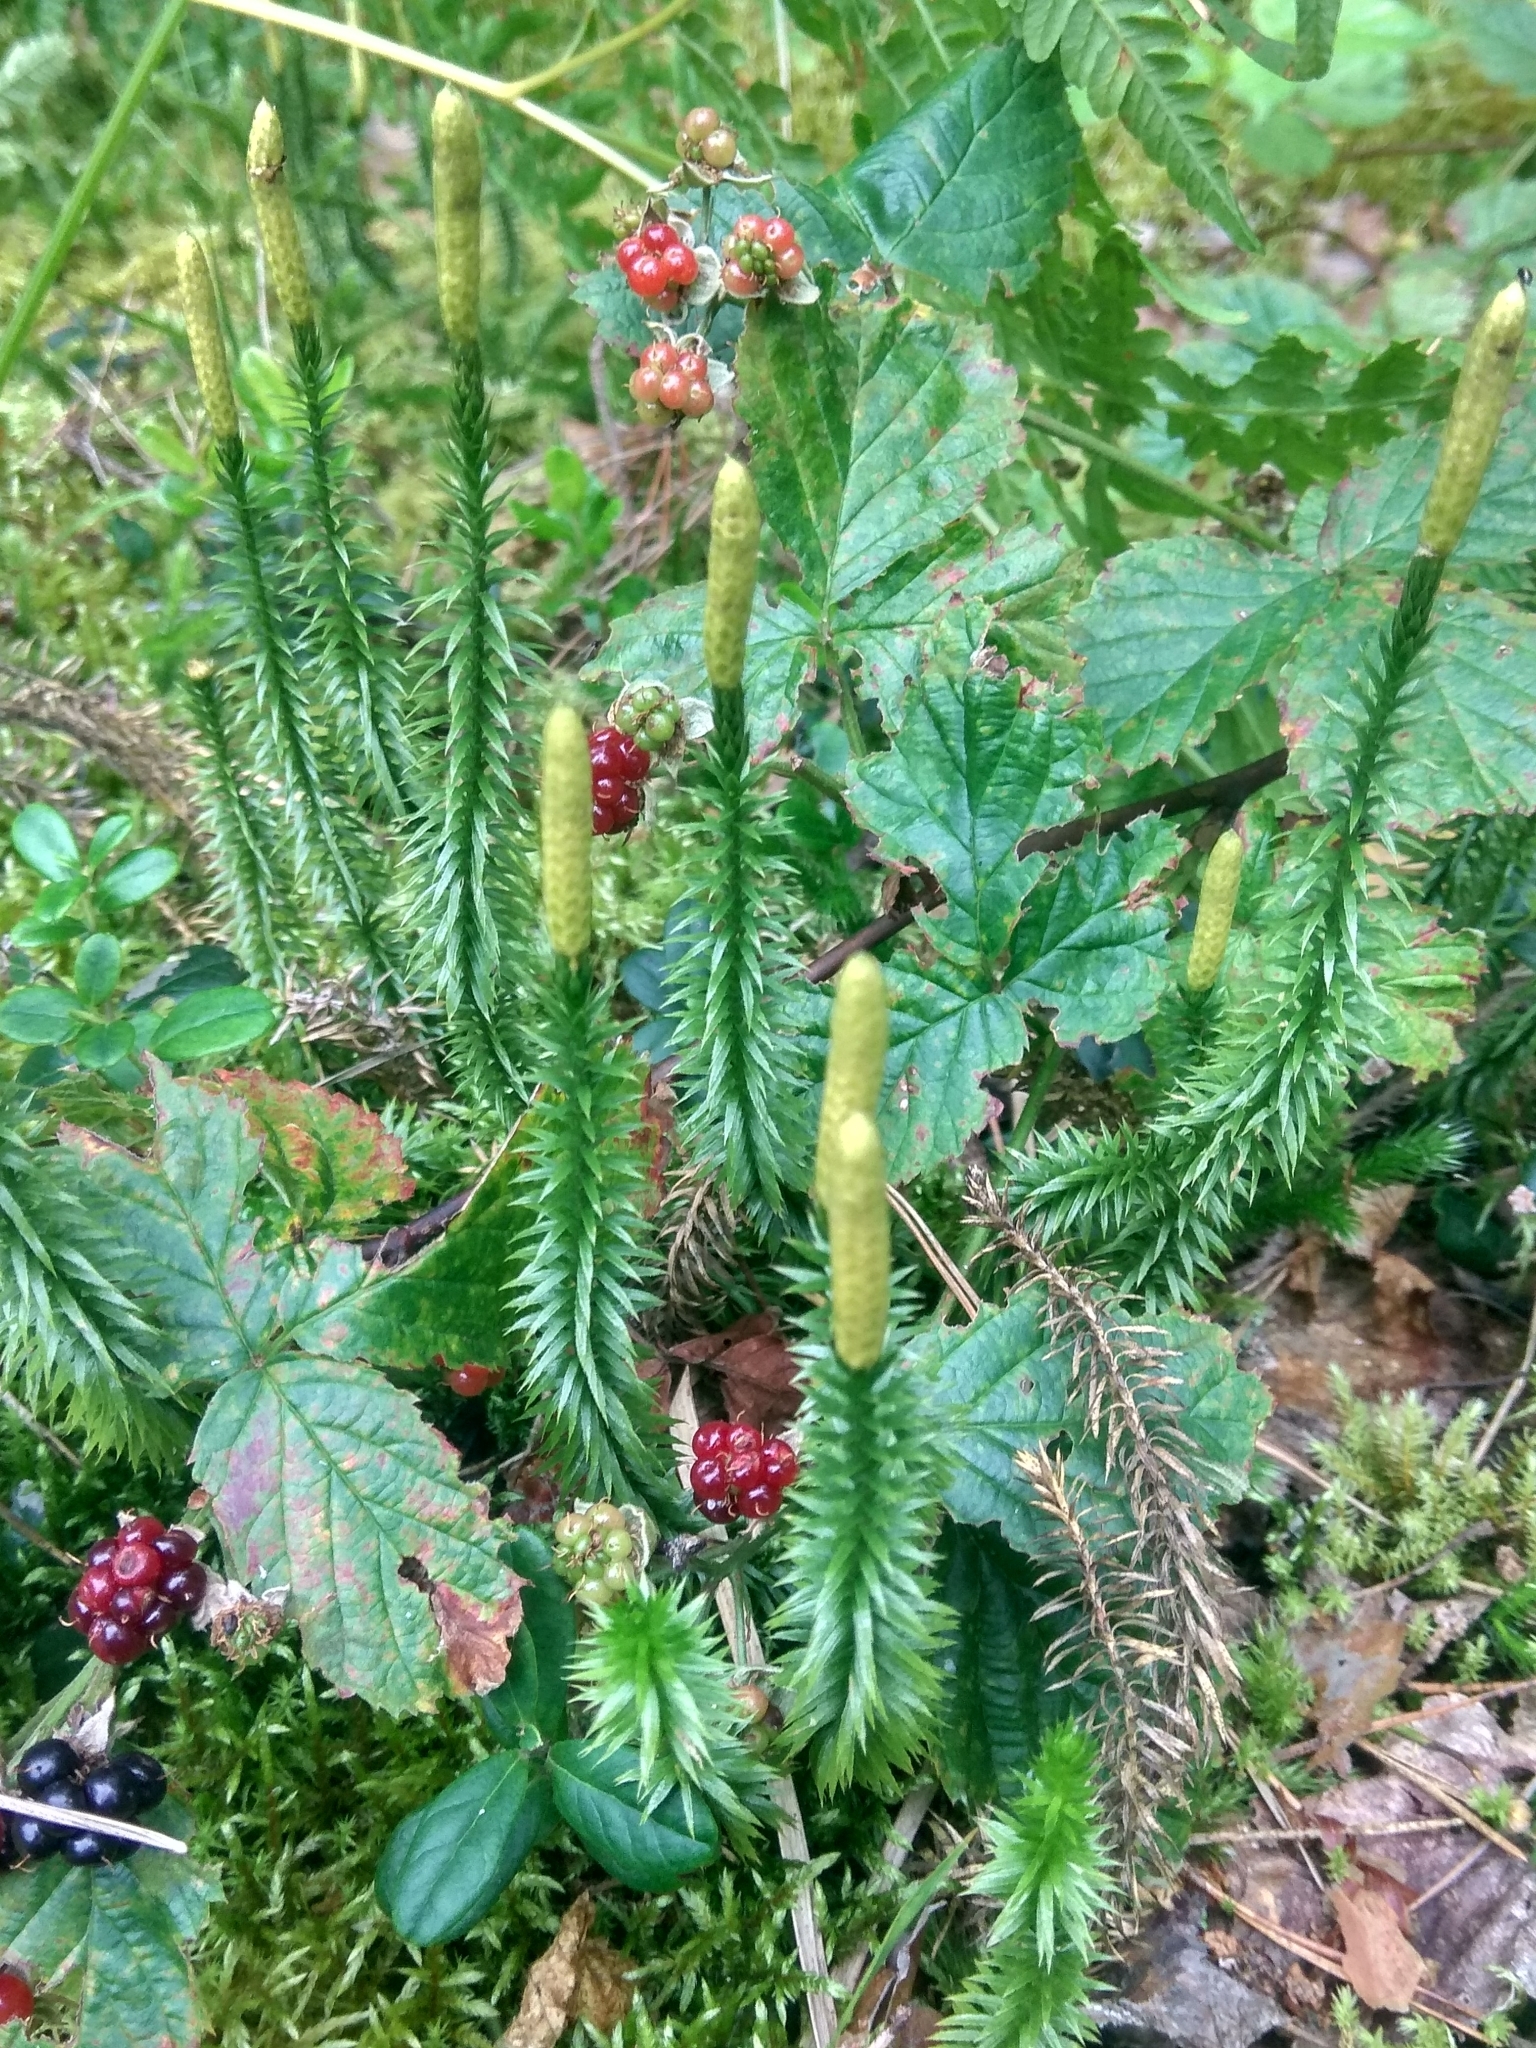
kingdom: Plantae
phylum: Tracheophyta
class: Lycopodiopsida
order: Lycopodiales
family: Lycopodiaceae
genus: Spinulum
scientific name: Spinulum annotinum
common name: Interrupted club-moss
